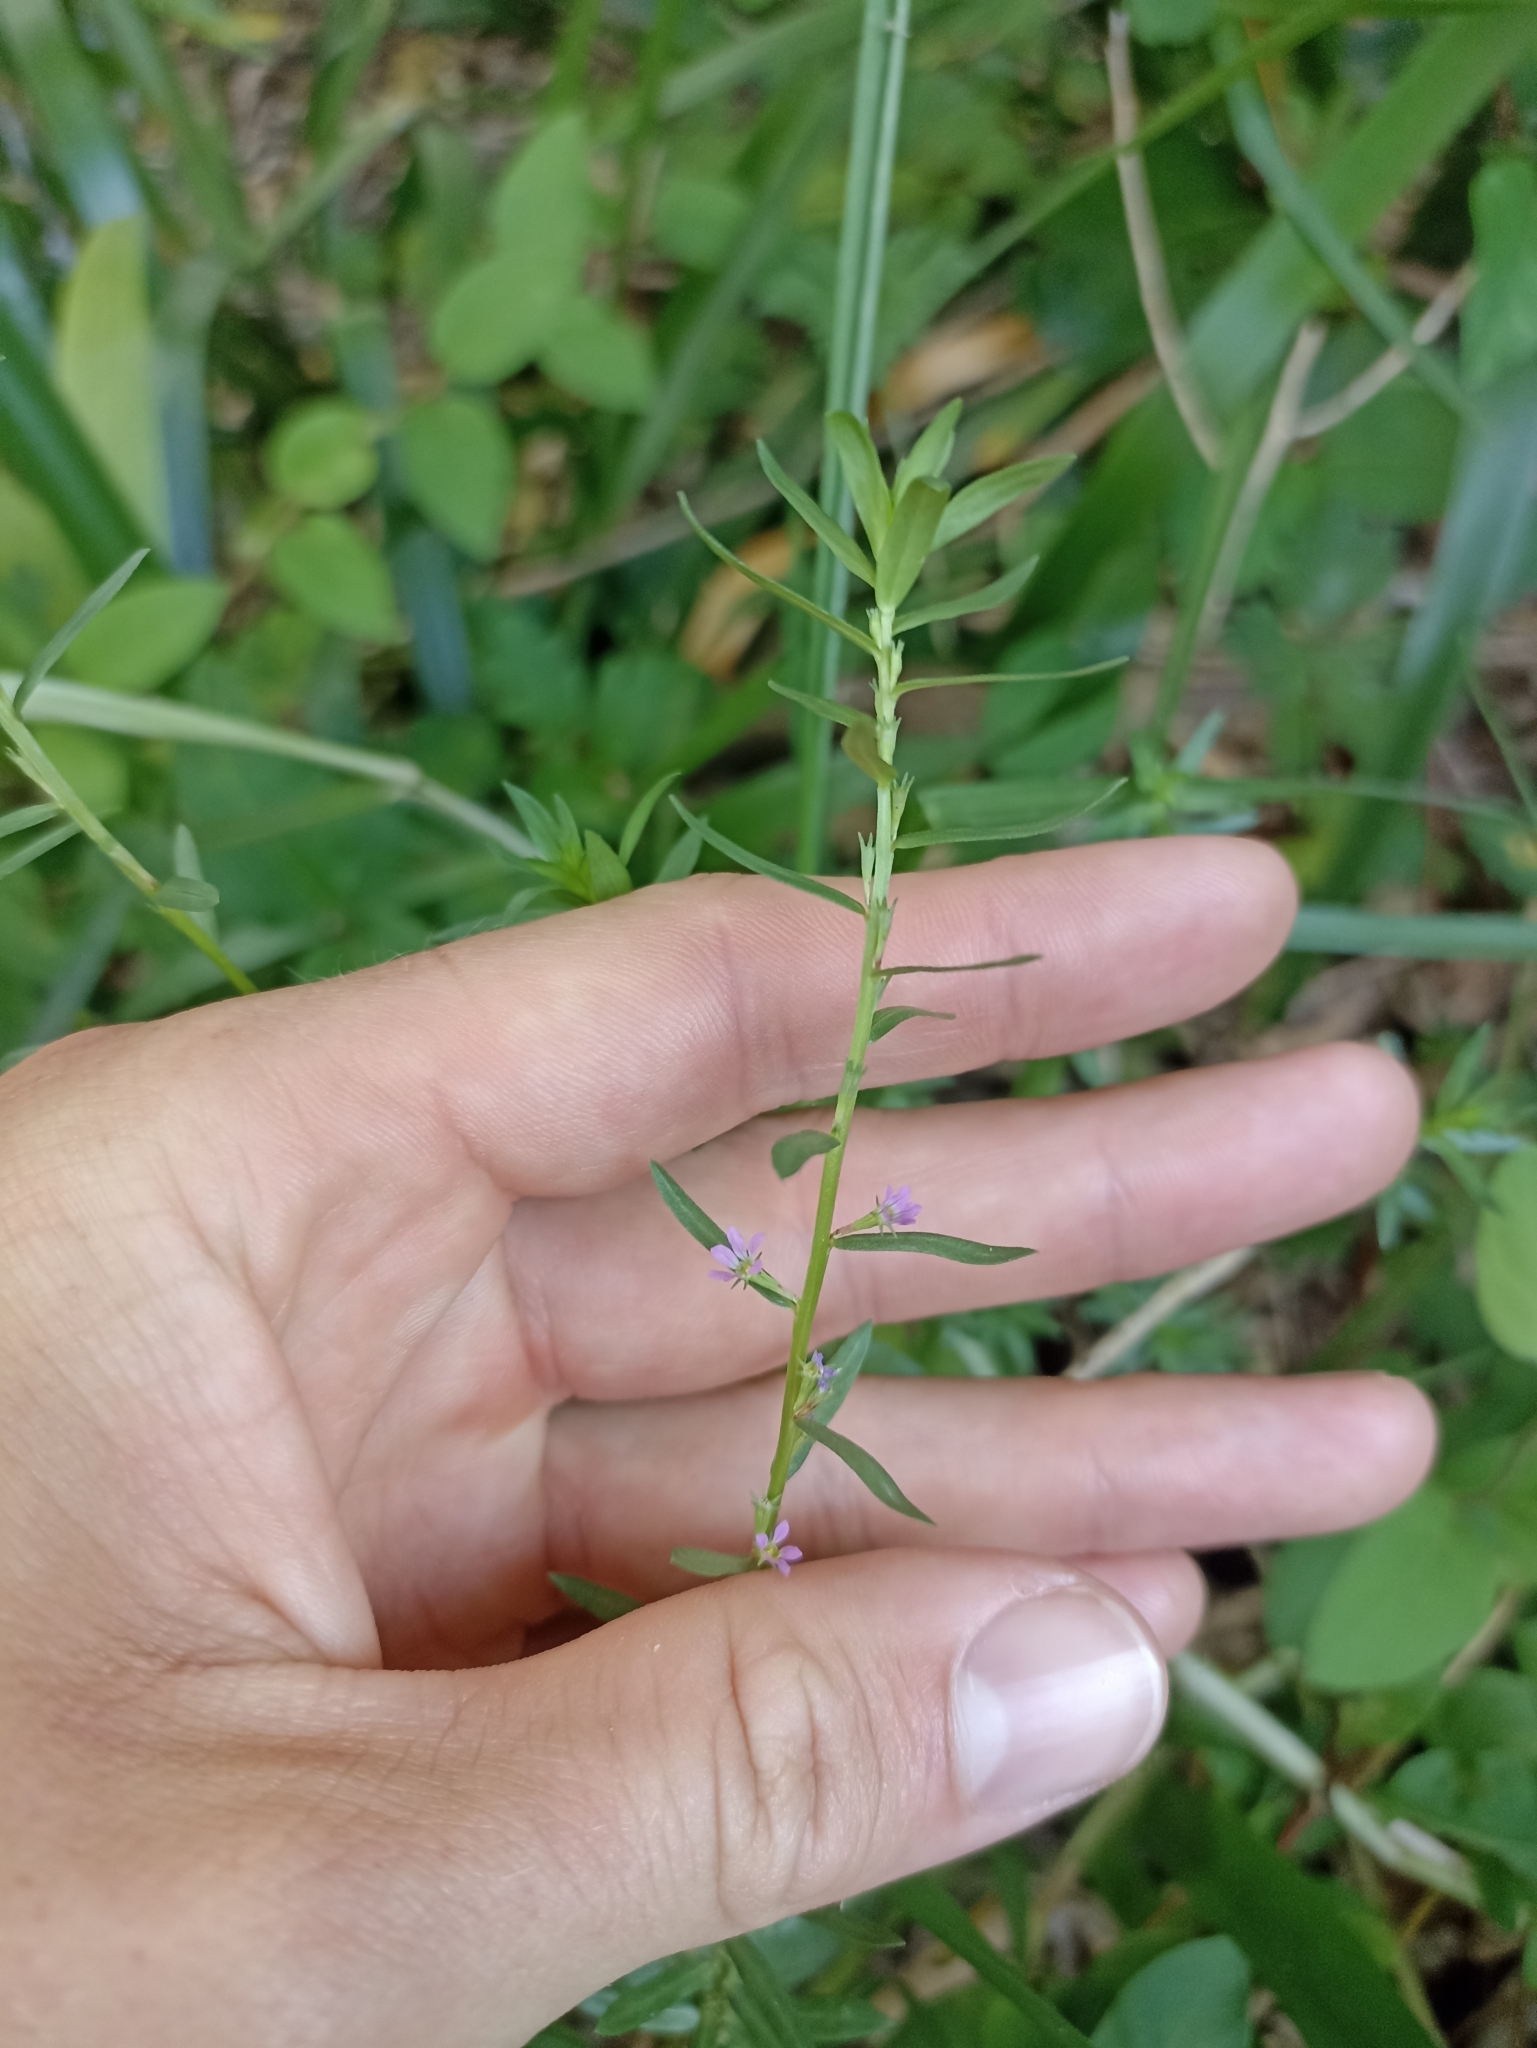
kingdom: Plantae
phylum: Tracheophyta
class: Magnoliopsida
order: Myrtales
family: Lythraceae
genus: Lythrum
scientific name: Lythrum hyssopifolia
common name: Grass-poly
